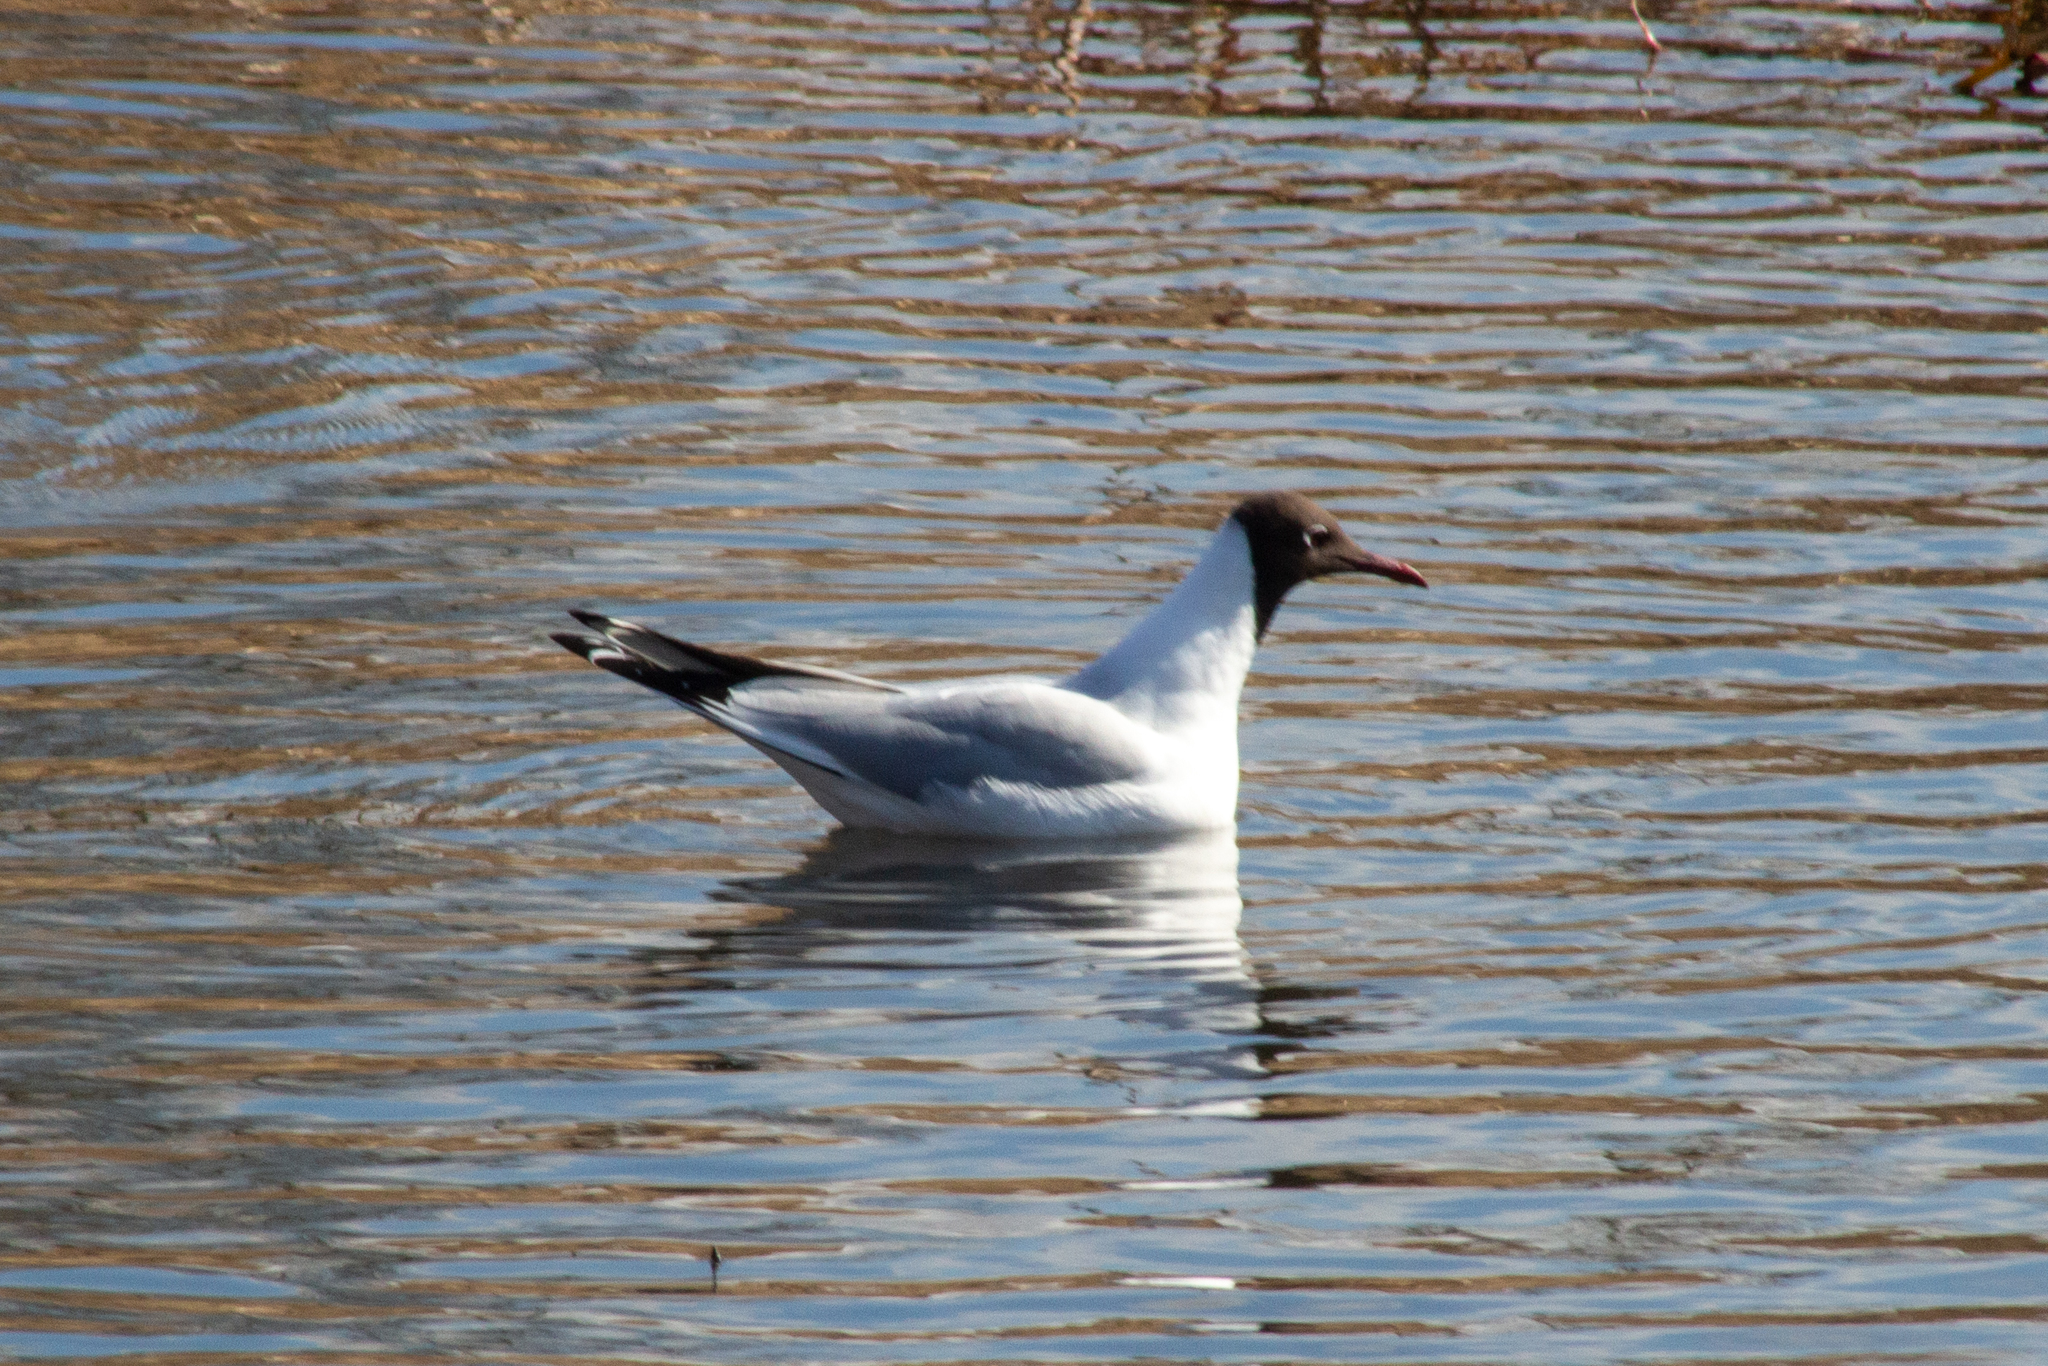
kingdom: Animalia
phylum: Chordata
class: Aves
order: Charadriiformes
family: Laridae
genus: Chroicocephalus
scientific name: Chroicocephalus ridibundus
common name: Black-headed gull
